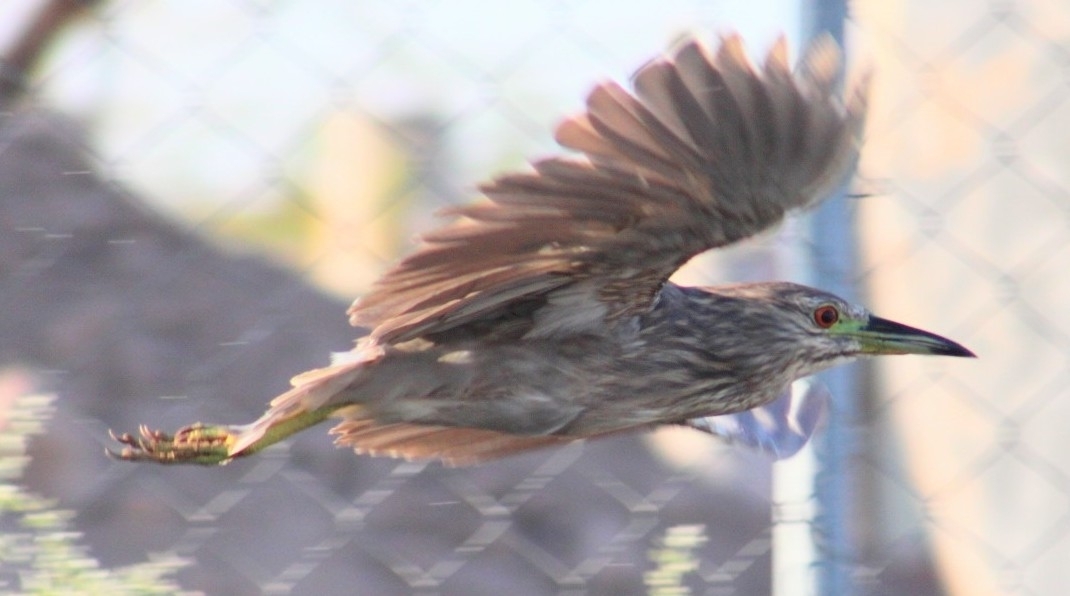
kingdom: Animalia
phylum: Chordata
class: Aves
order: Pelecaniformes
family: Ardeidae
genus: Nycticorax
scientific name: Nycticorax nycticorax
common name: Black-crowned night heron
